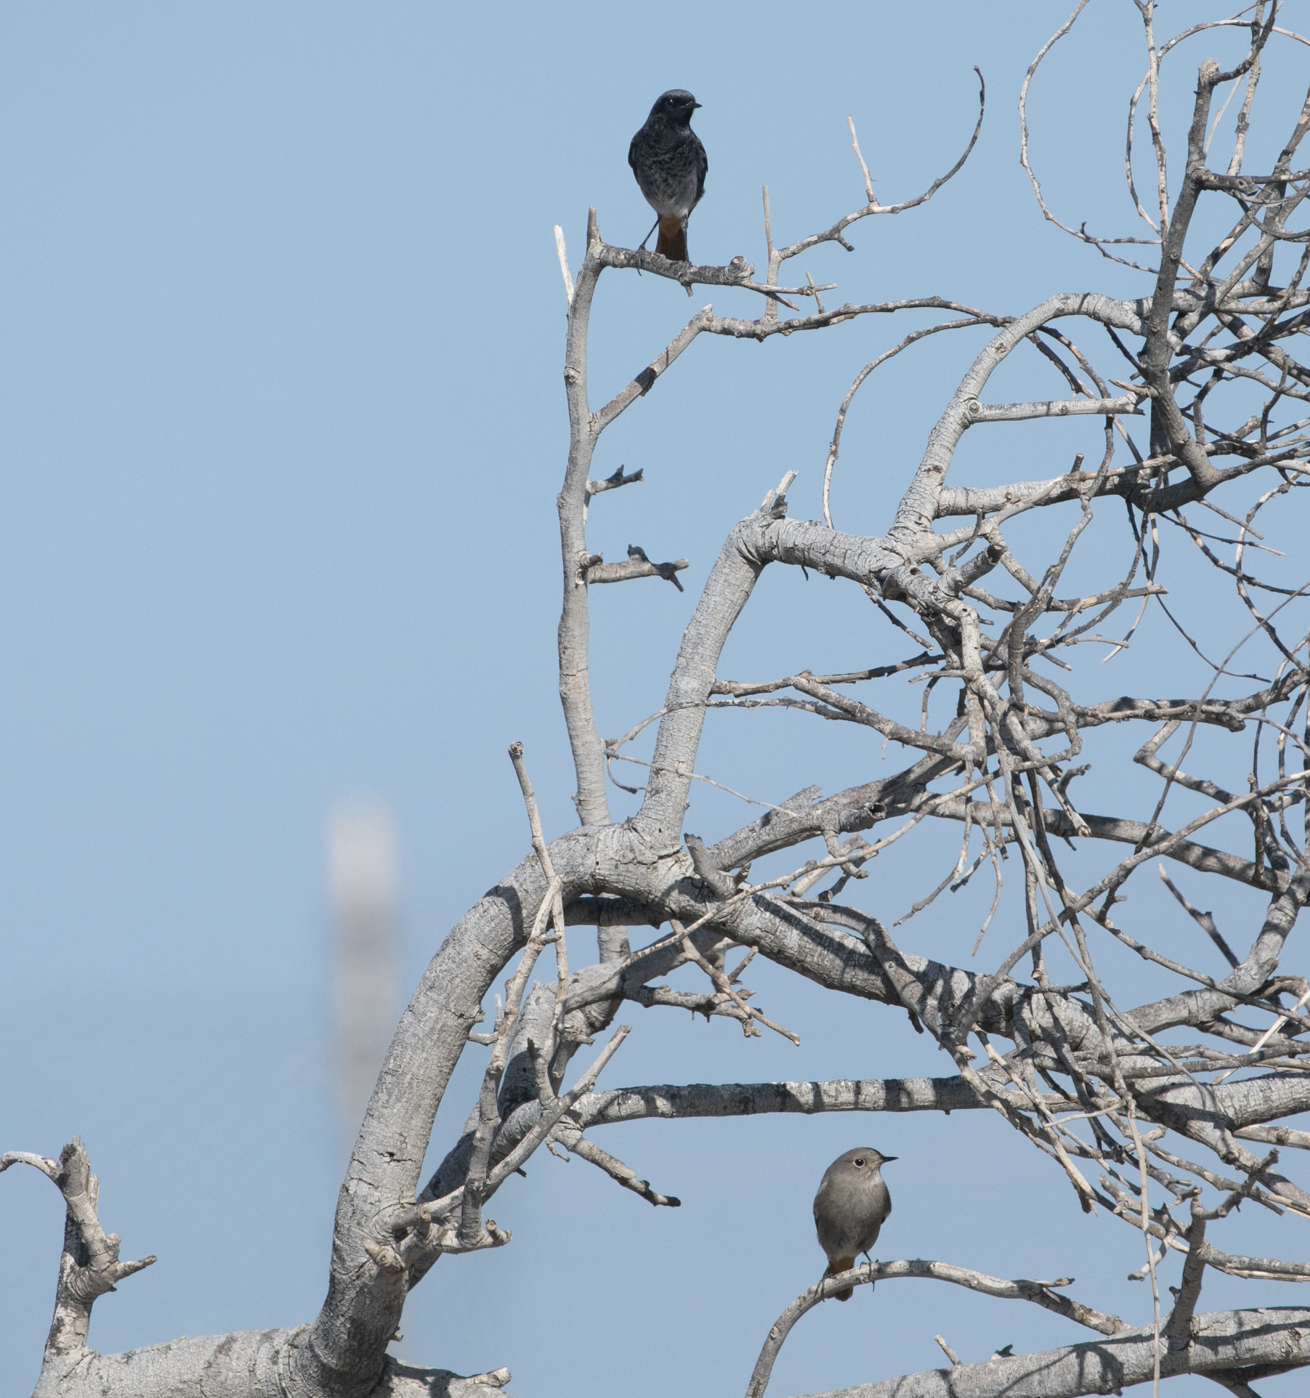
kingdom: Animalia
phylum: Chordata
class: Aves
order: Passeriformes
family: Muscicapidae
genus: Phoenicurus
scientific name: Phoenicurus ochruros
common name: Black redstart
